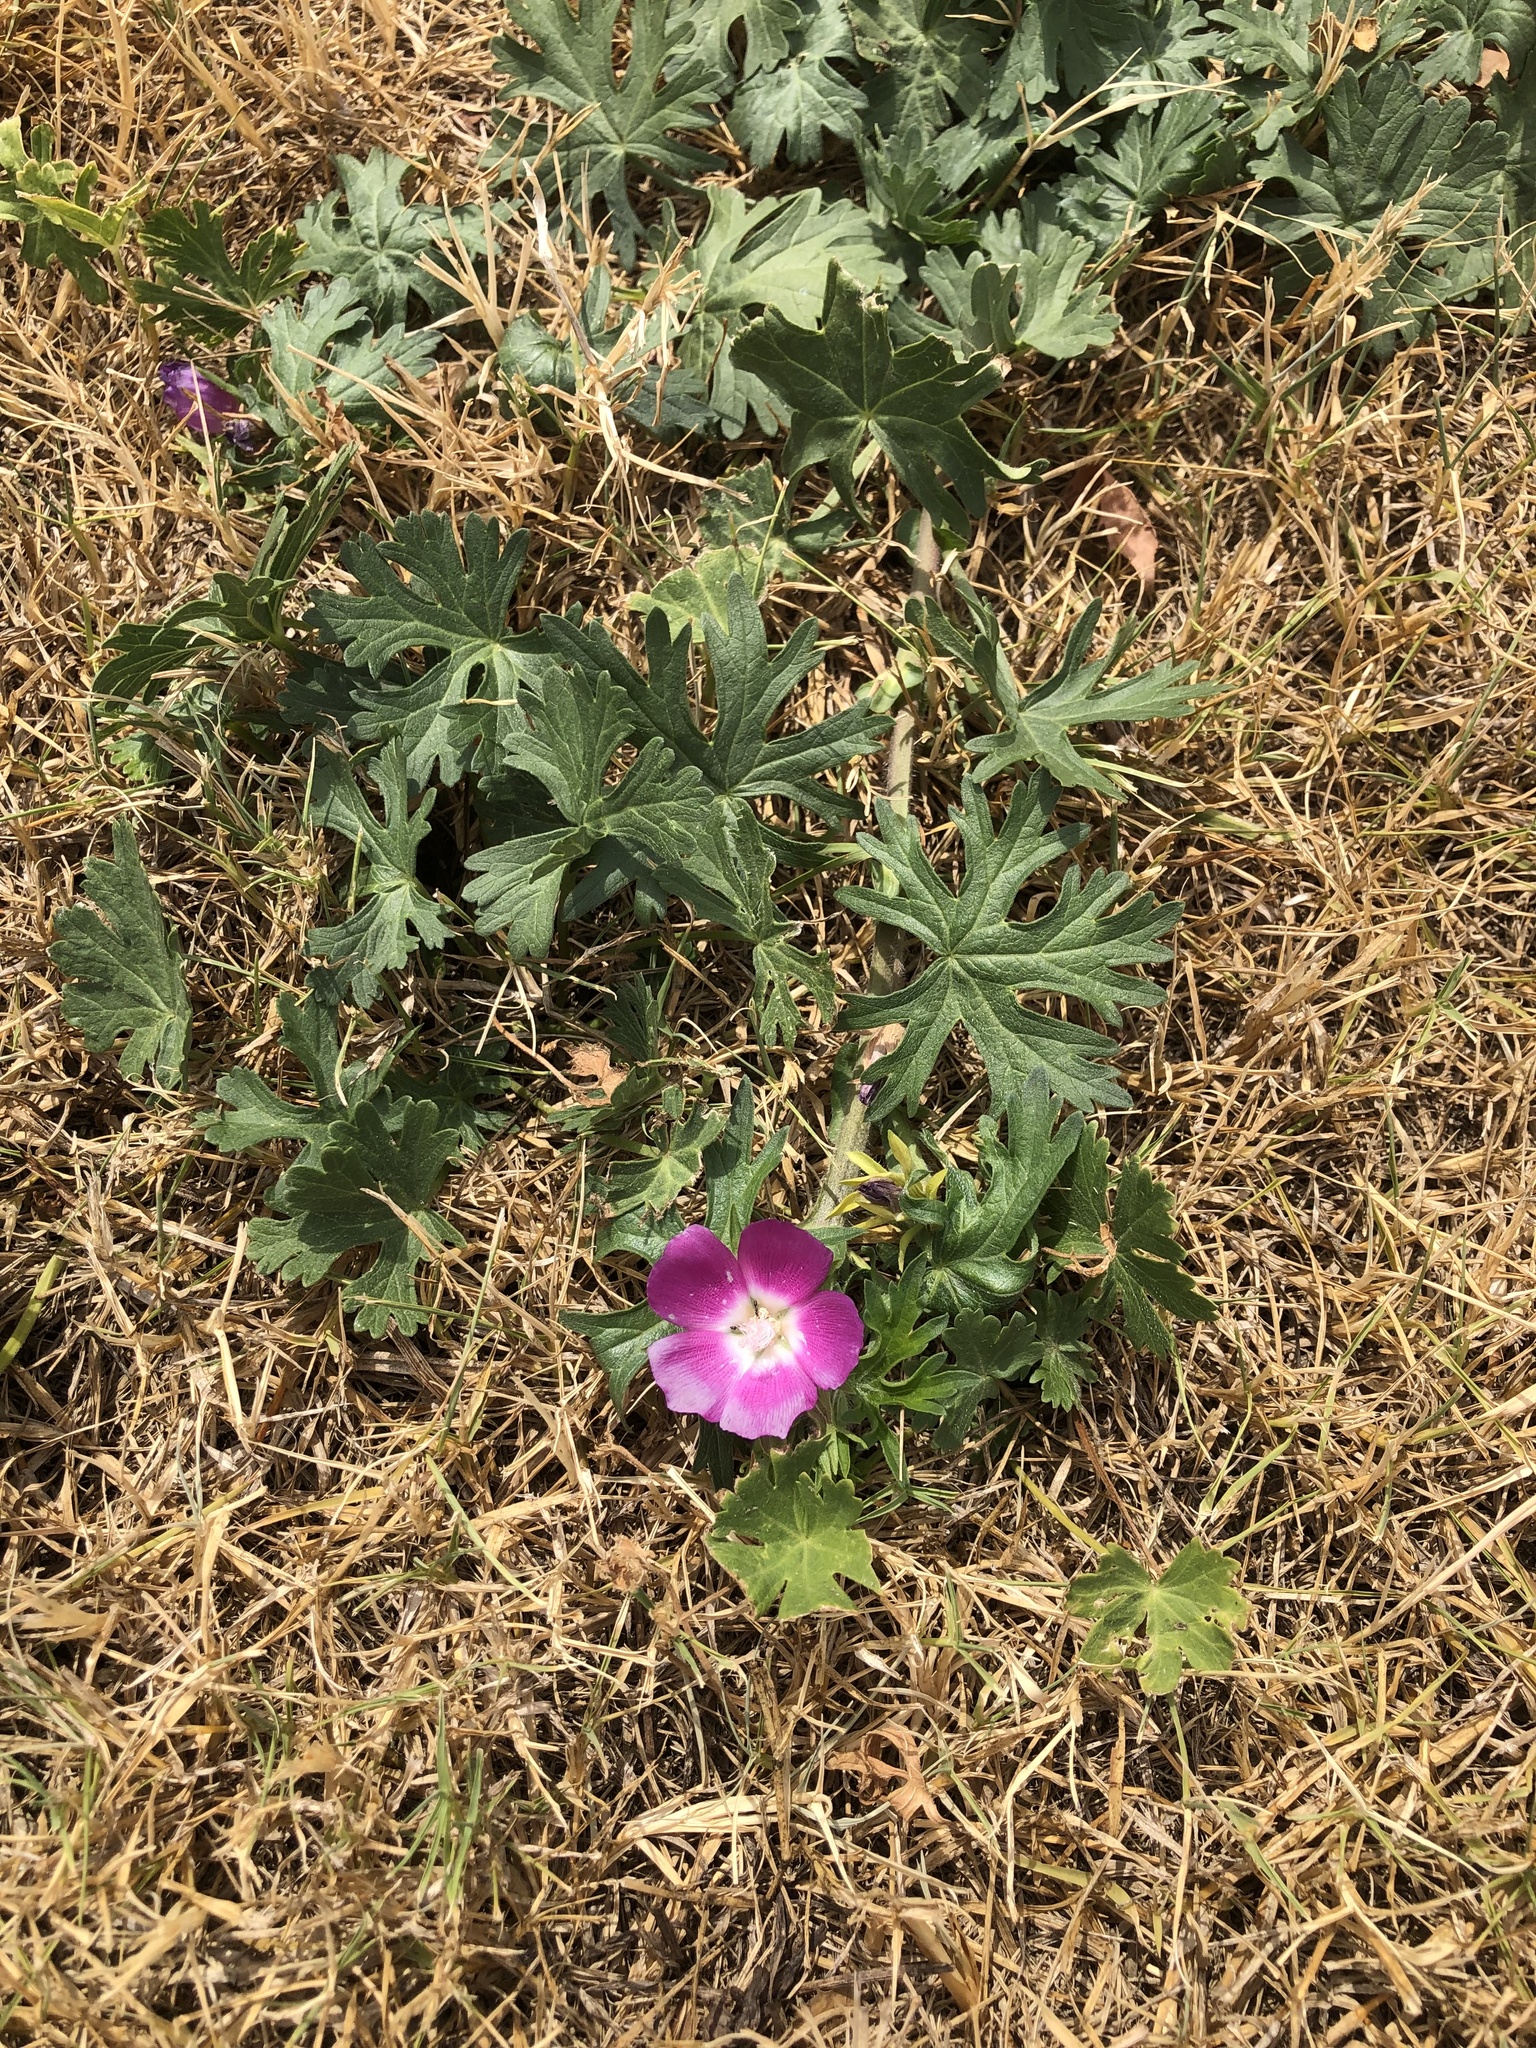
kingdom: Plantae
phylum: Tracheophyta
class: Magnoliopsida
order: Malvales
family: Malvaceae
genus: Callirhoe
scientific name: Callirhoe involucrata
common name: Purple poppy-mallow
